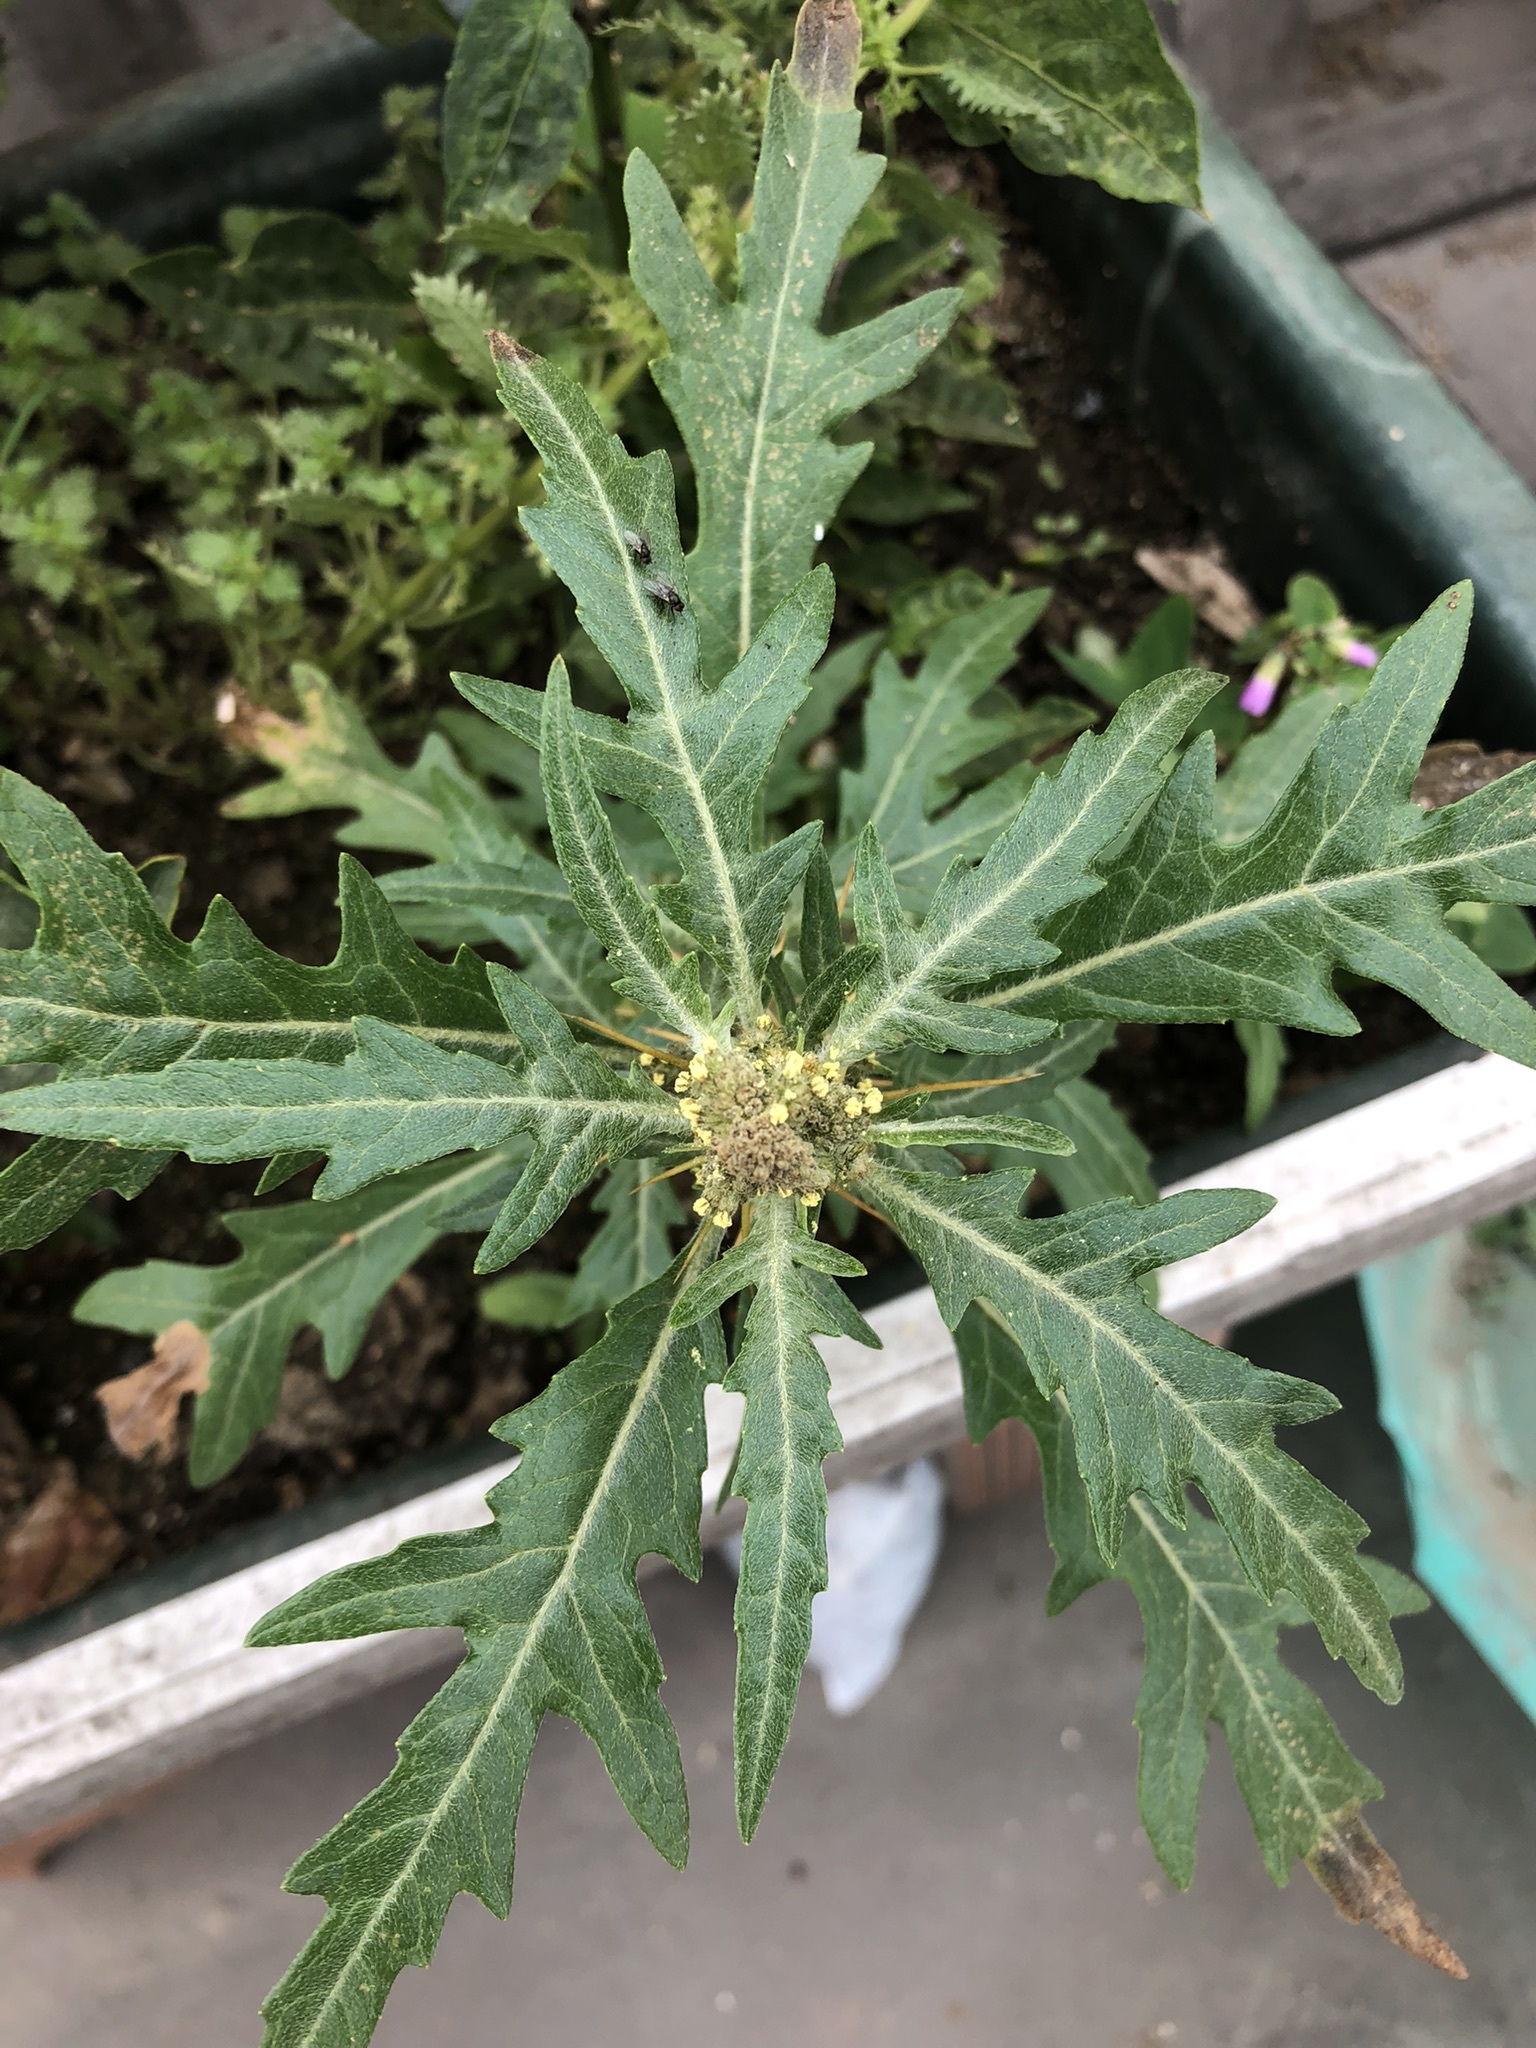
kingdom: Plantae
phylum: Tracheophyta
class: Magnoliopsida
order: Asterales
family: Asteraceae
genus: Xanthium
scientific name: Xanthium spinosum
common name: Spiny cocklebur
